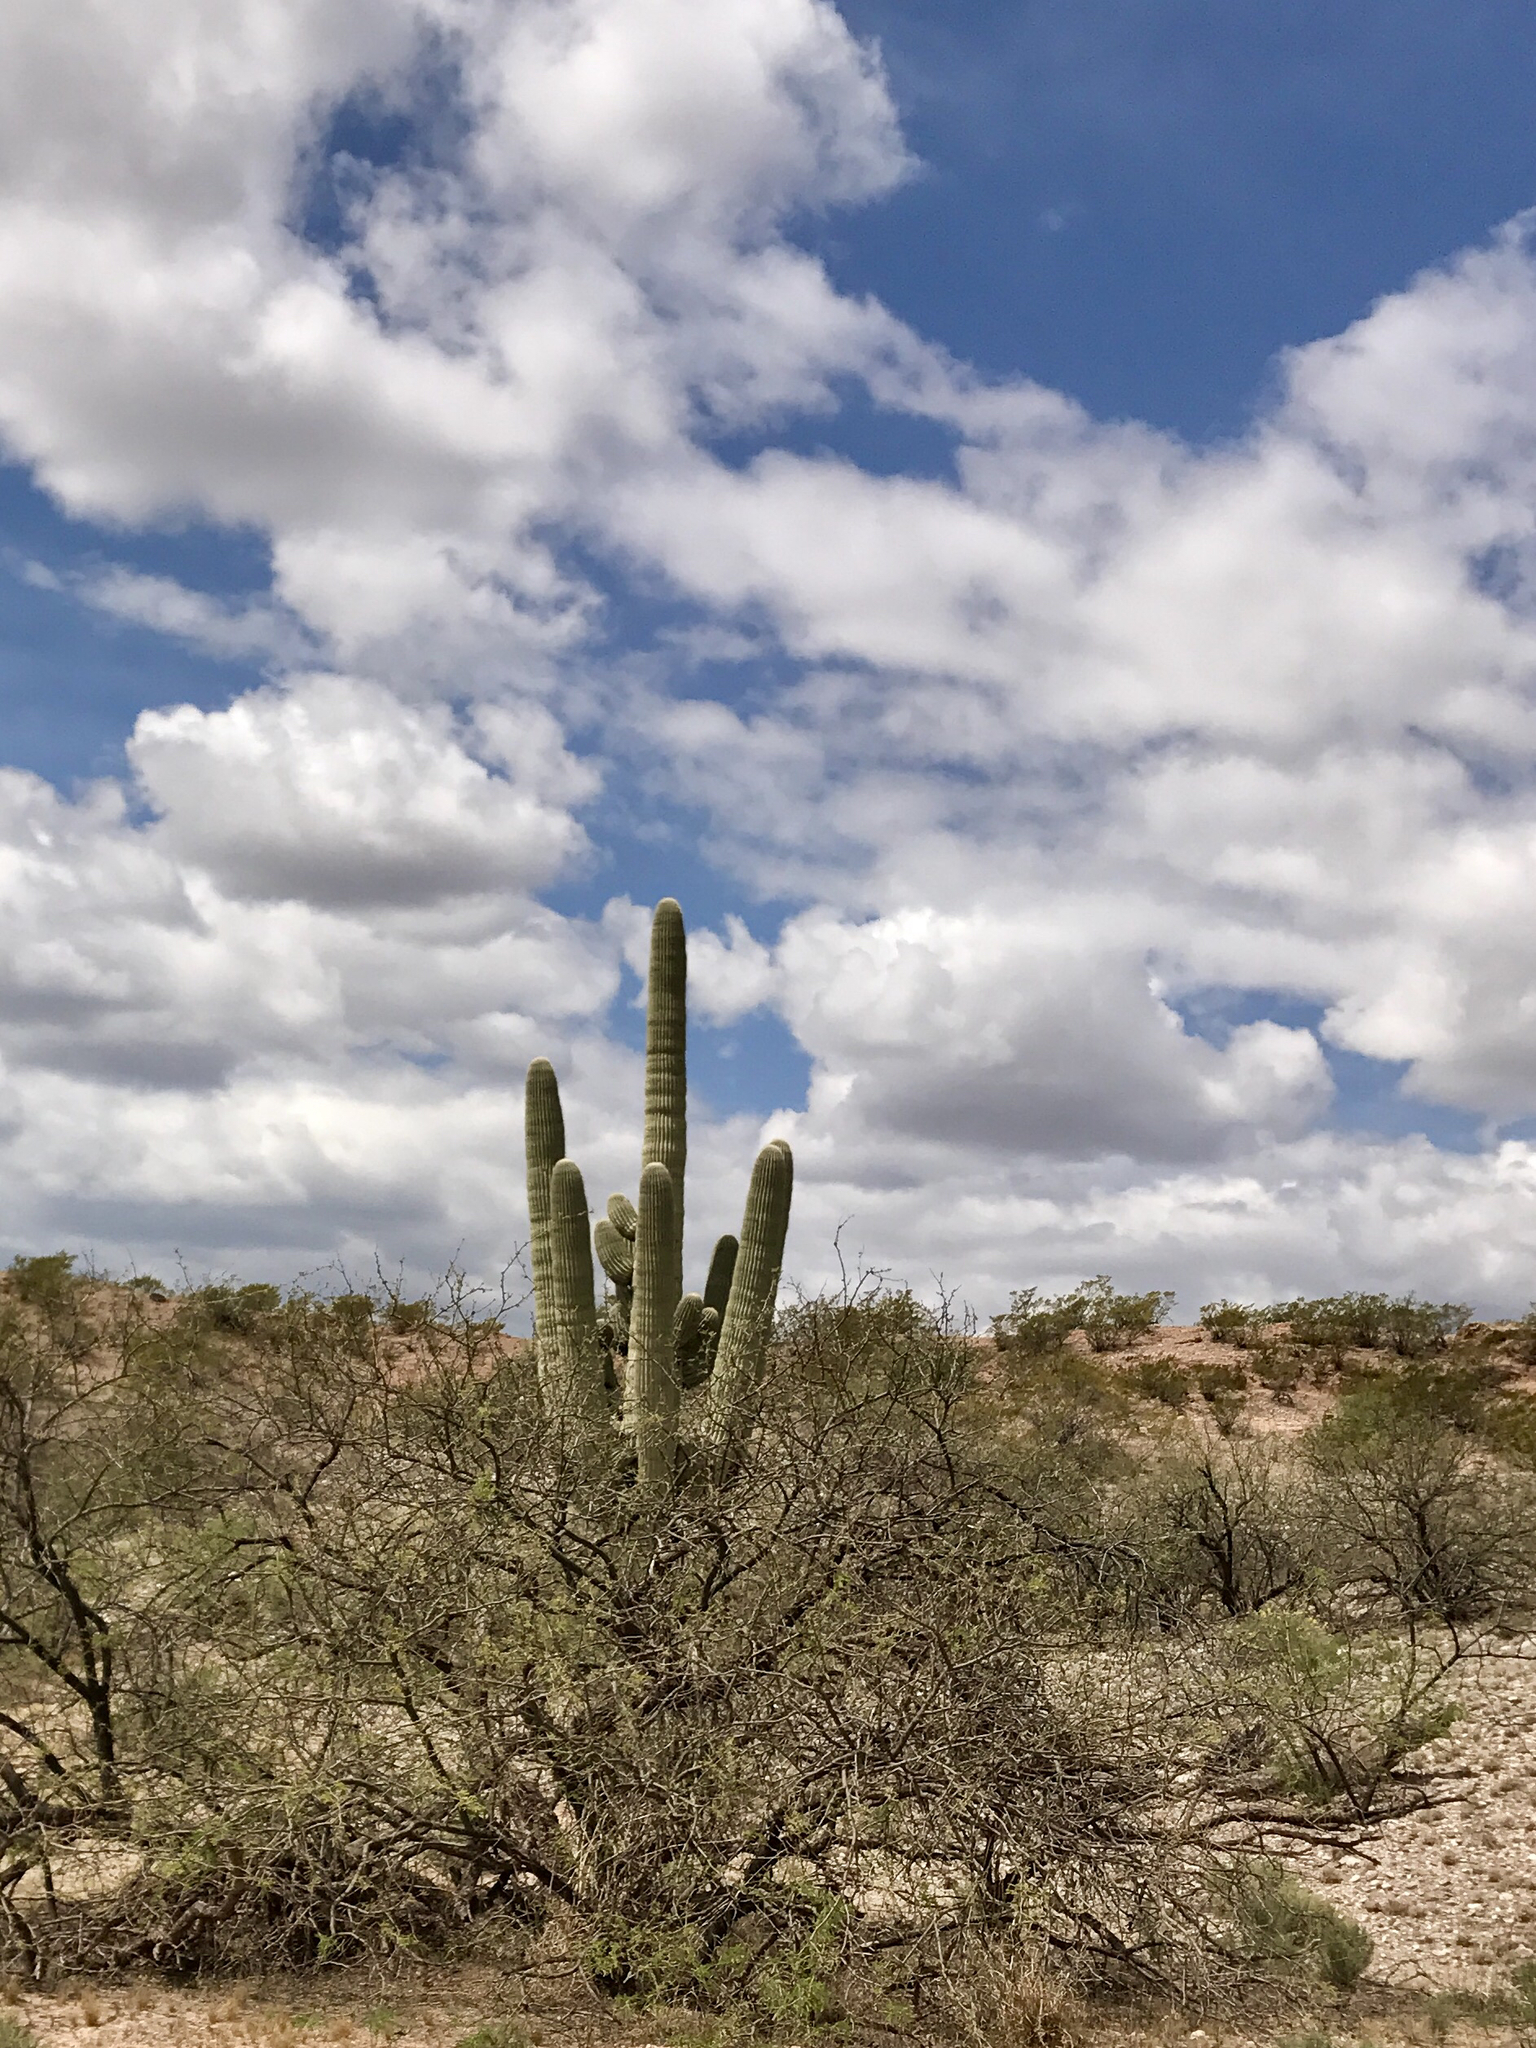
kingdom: Plantae
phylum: Tracheophyta
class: Magnoliopsida
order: Caryophyllales
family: Cactaceae
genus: Carnegiea
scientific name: Carnegiea gigantea
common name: Saguaro
